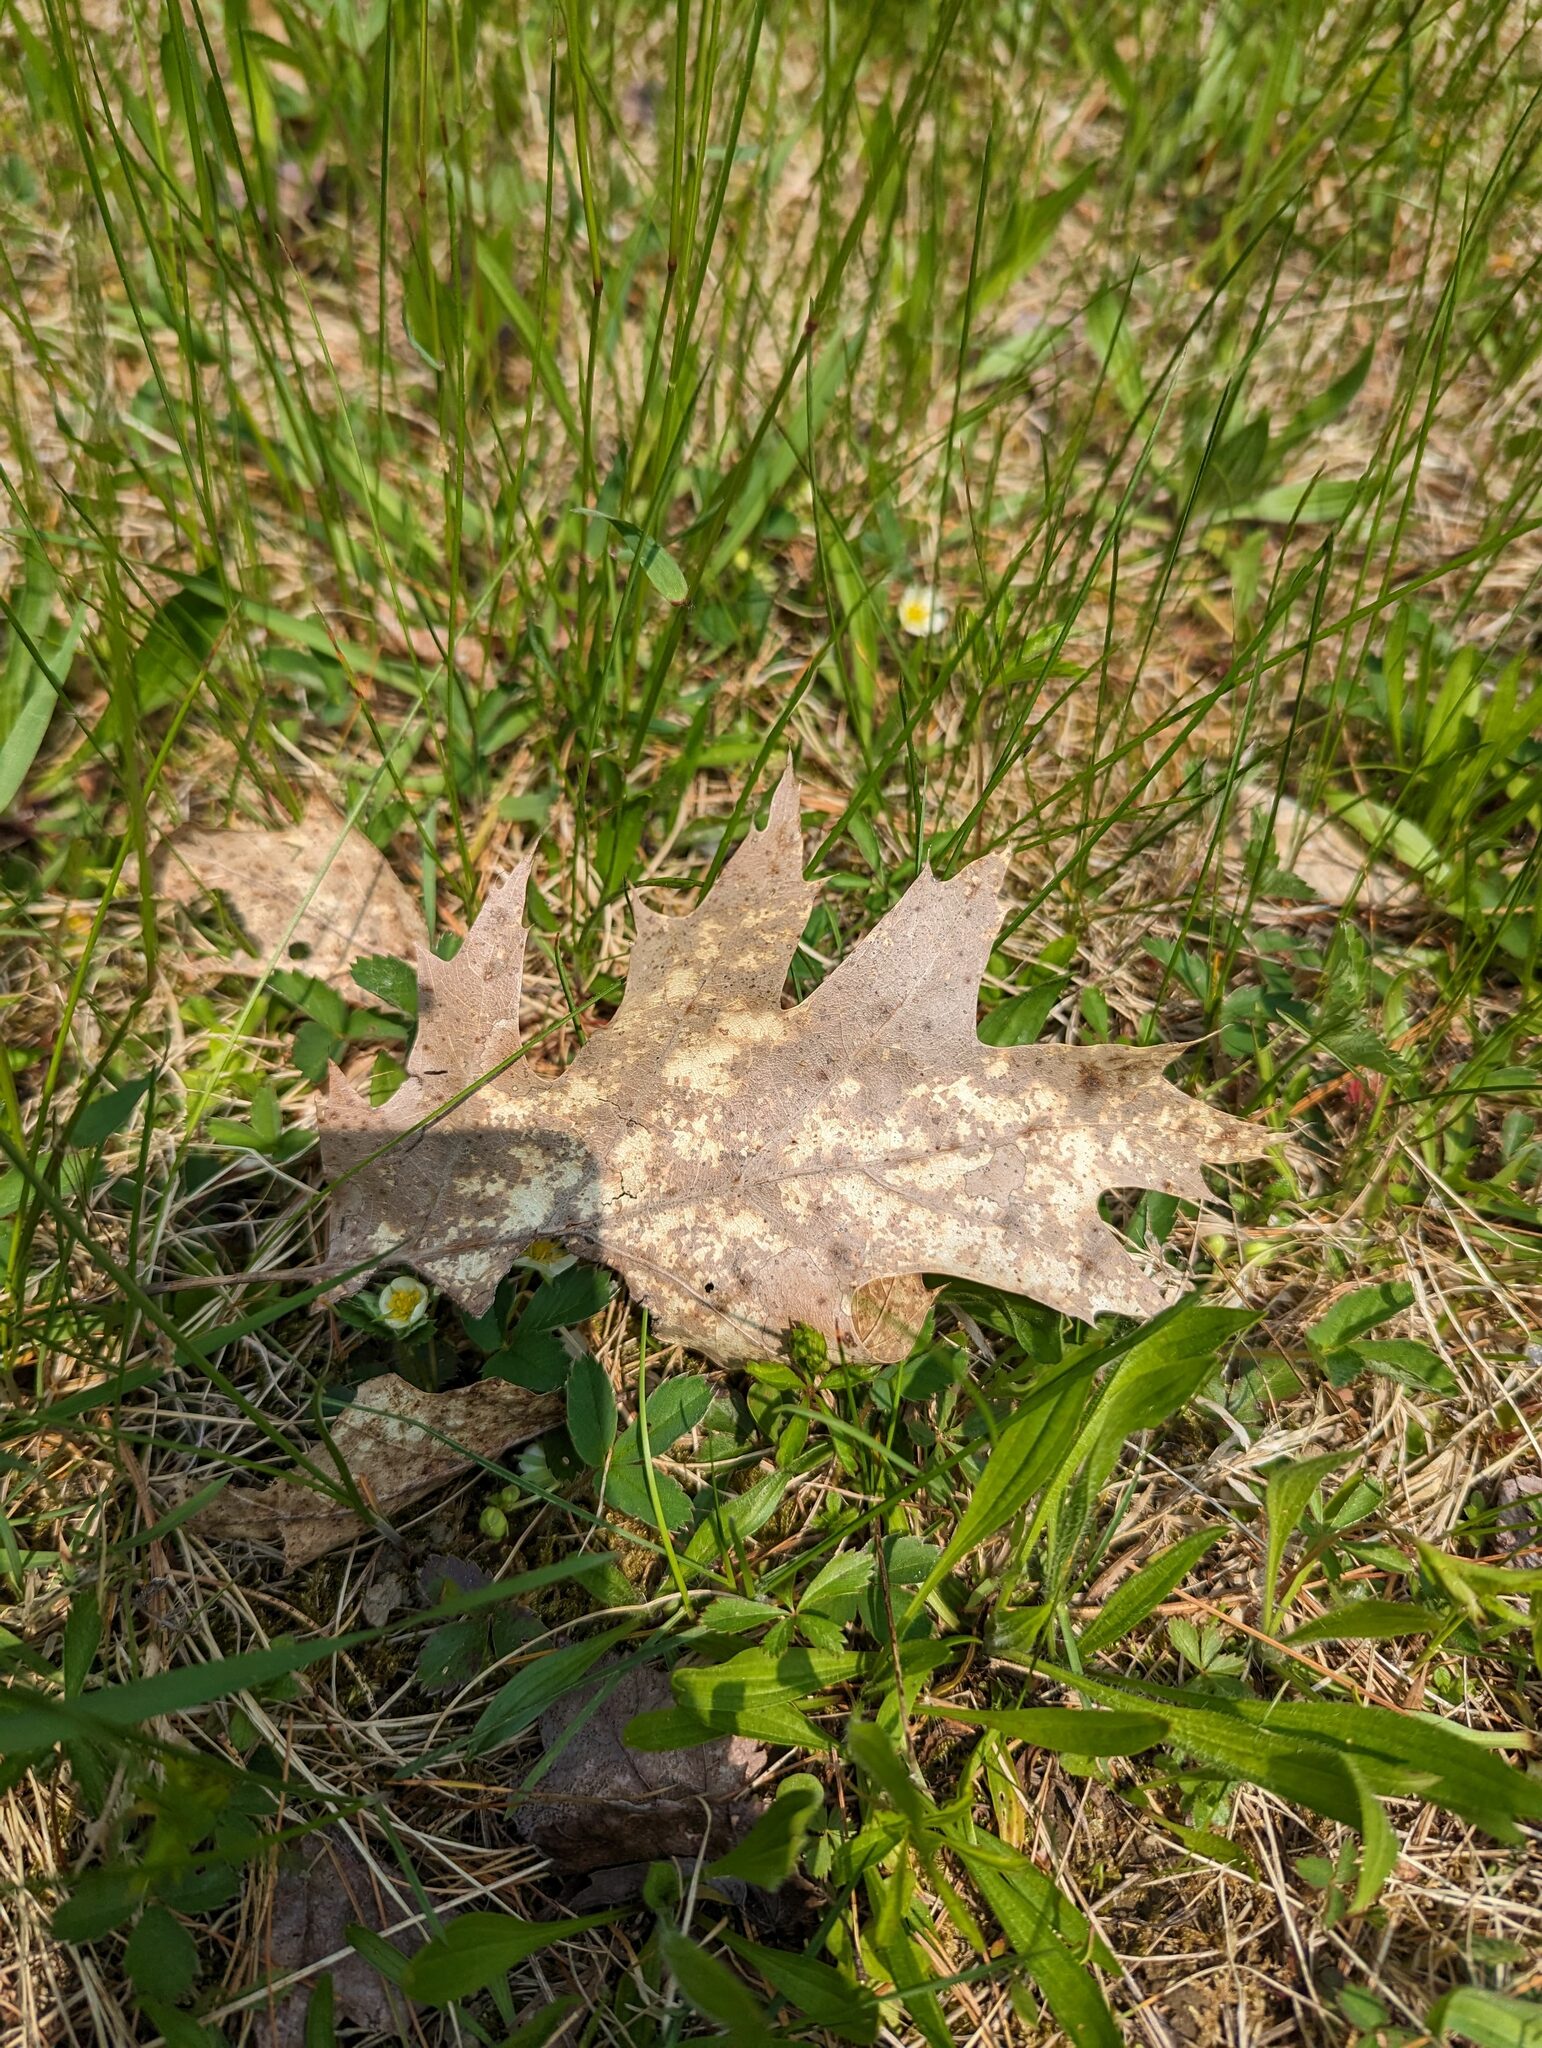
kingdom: Plantae
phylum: Tracheophyta
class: Magnoliopsida
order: Fagales
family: Fagaceae
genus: Quercus
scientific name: Quercus rubra
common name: Red oak
